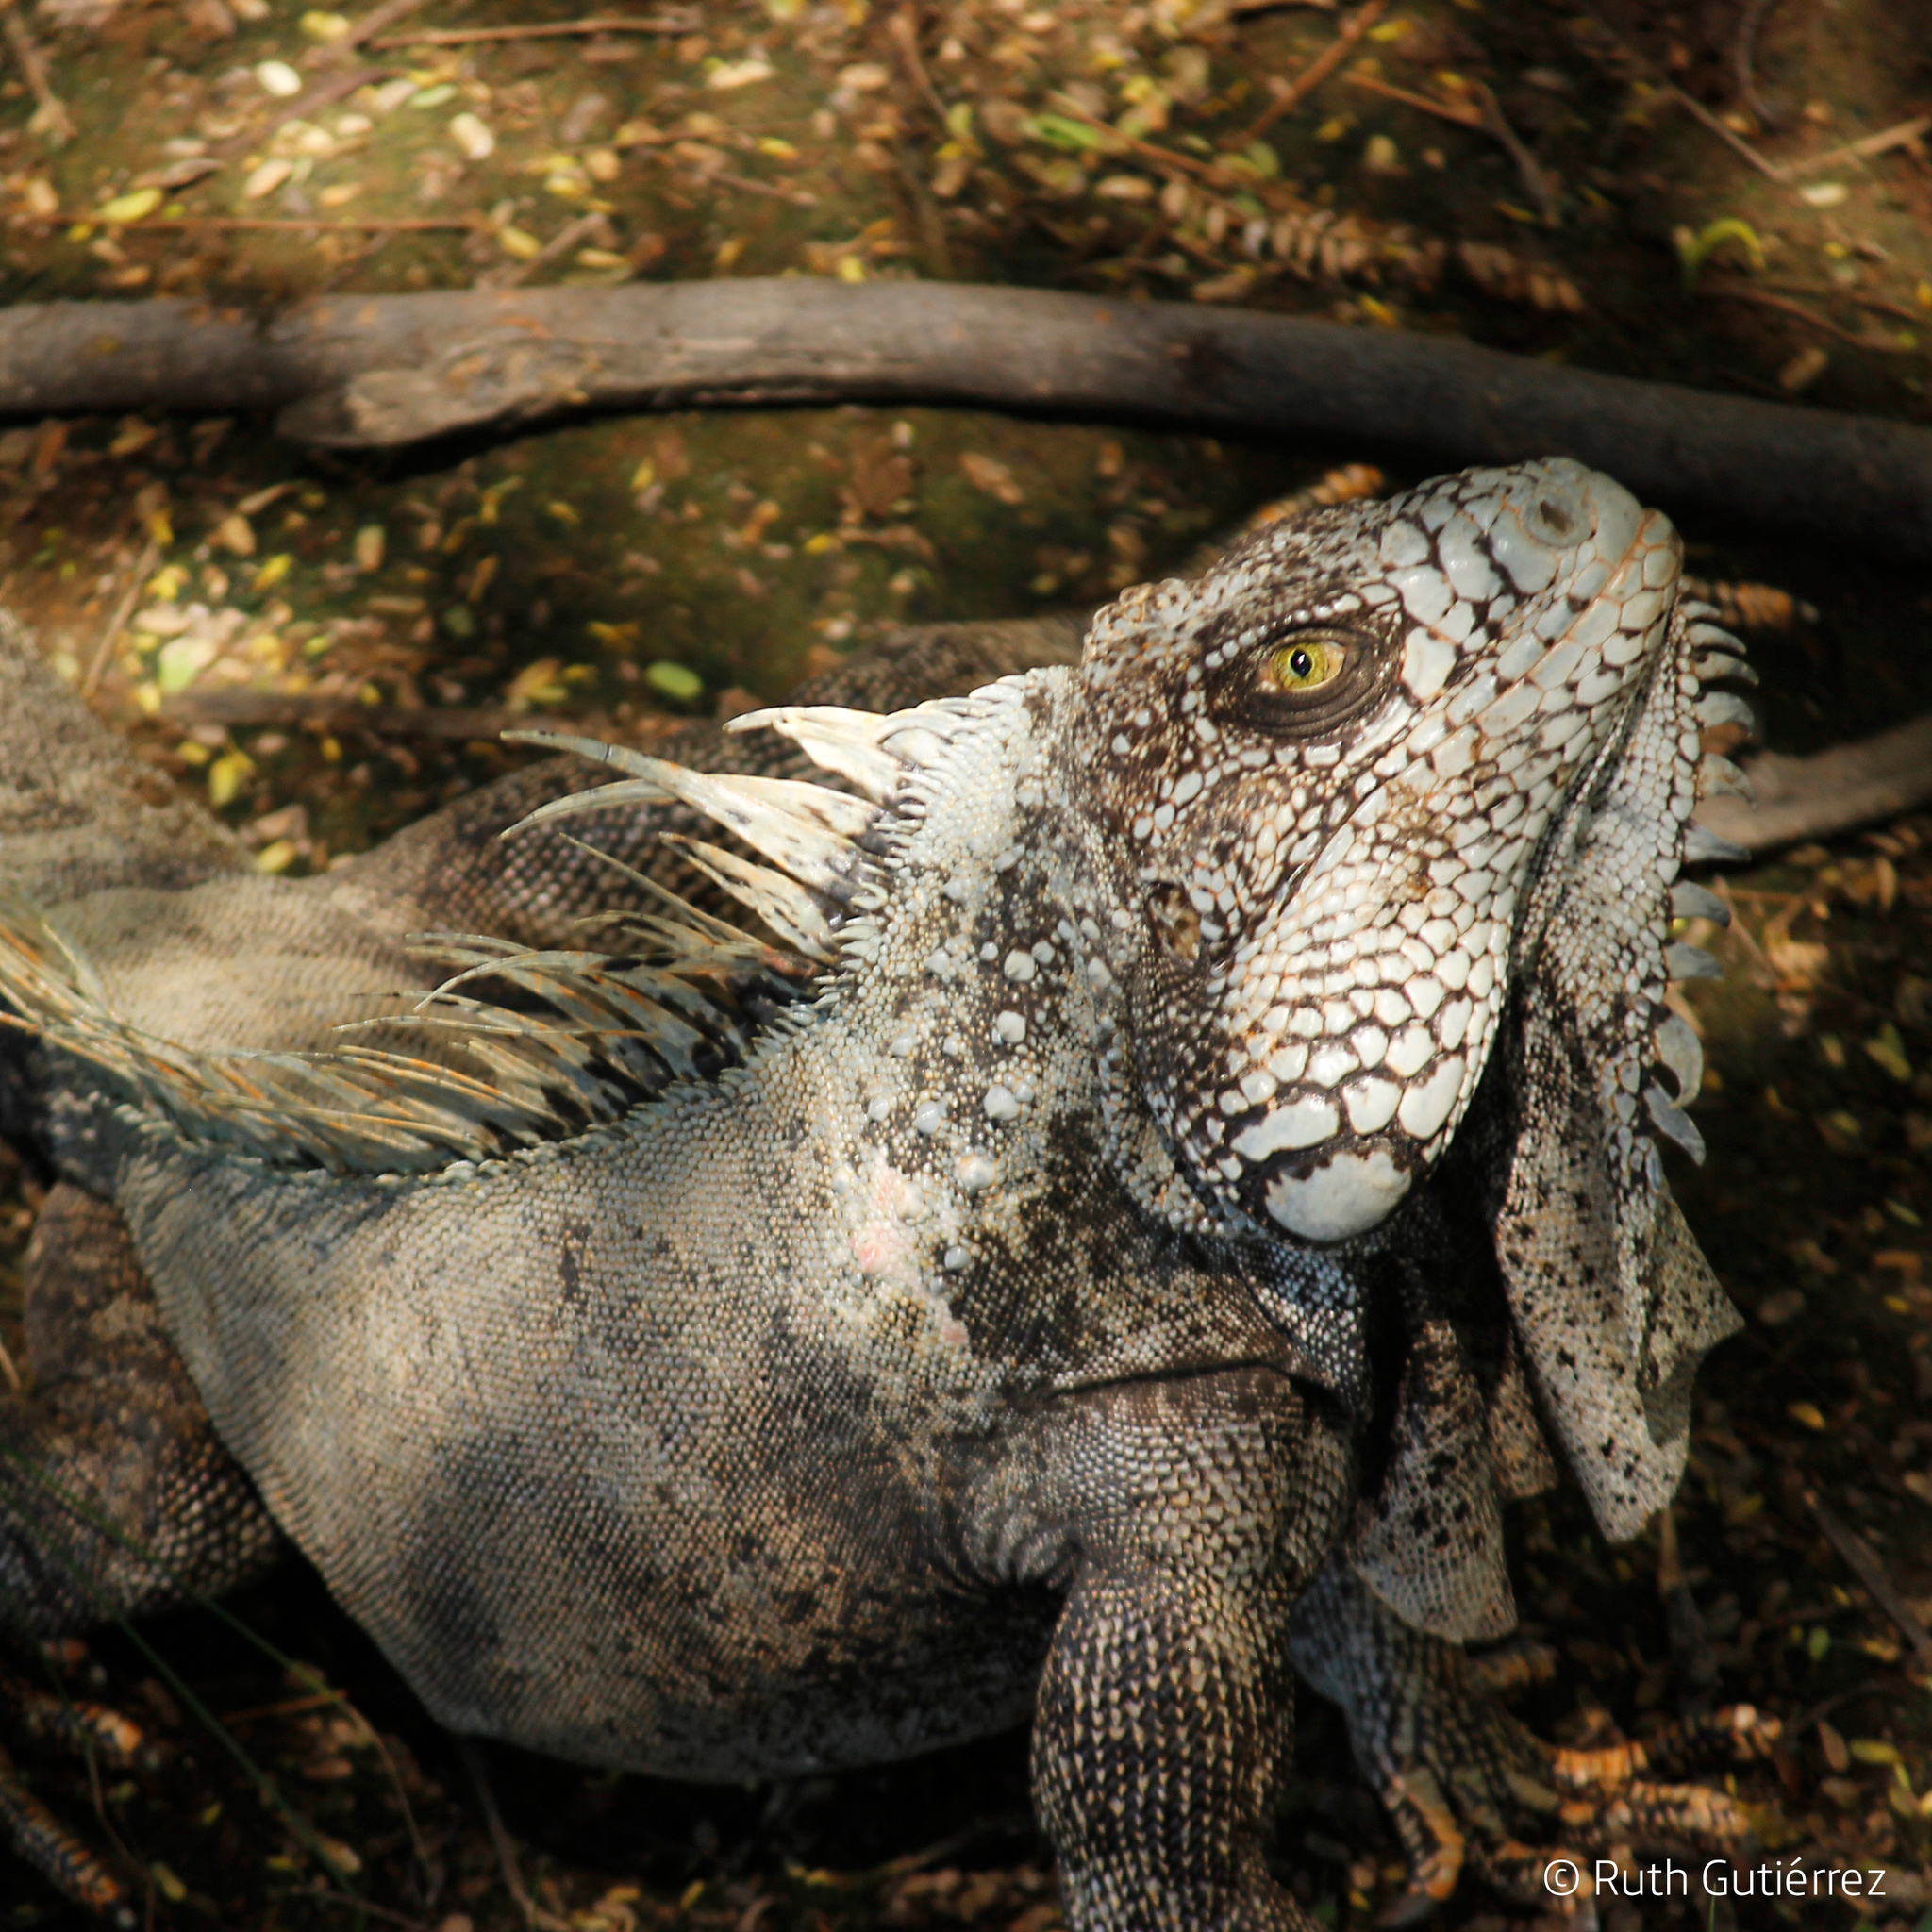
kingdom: Animalia
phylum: Chordata
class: Squamata
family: Iguanidae
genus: Iguana
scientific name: Iguana iguana
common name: Green iguana
